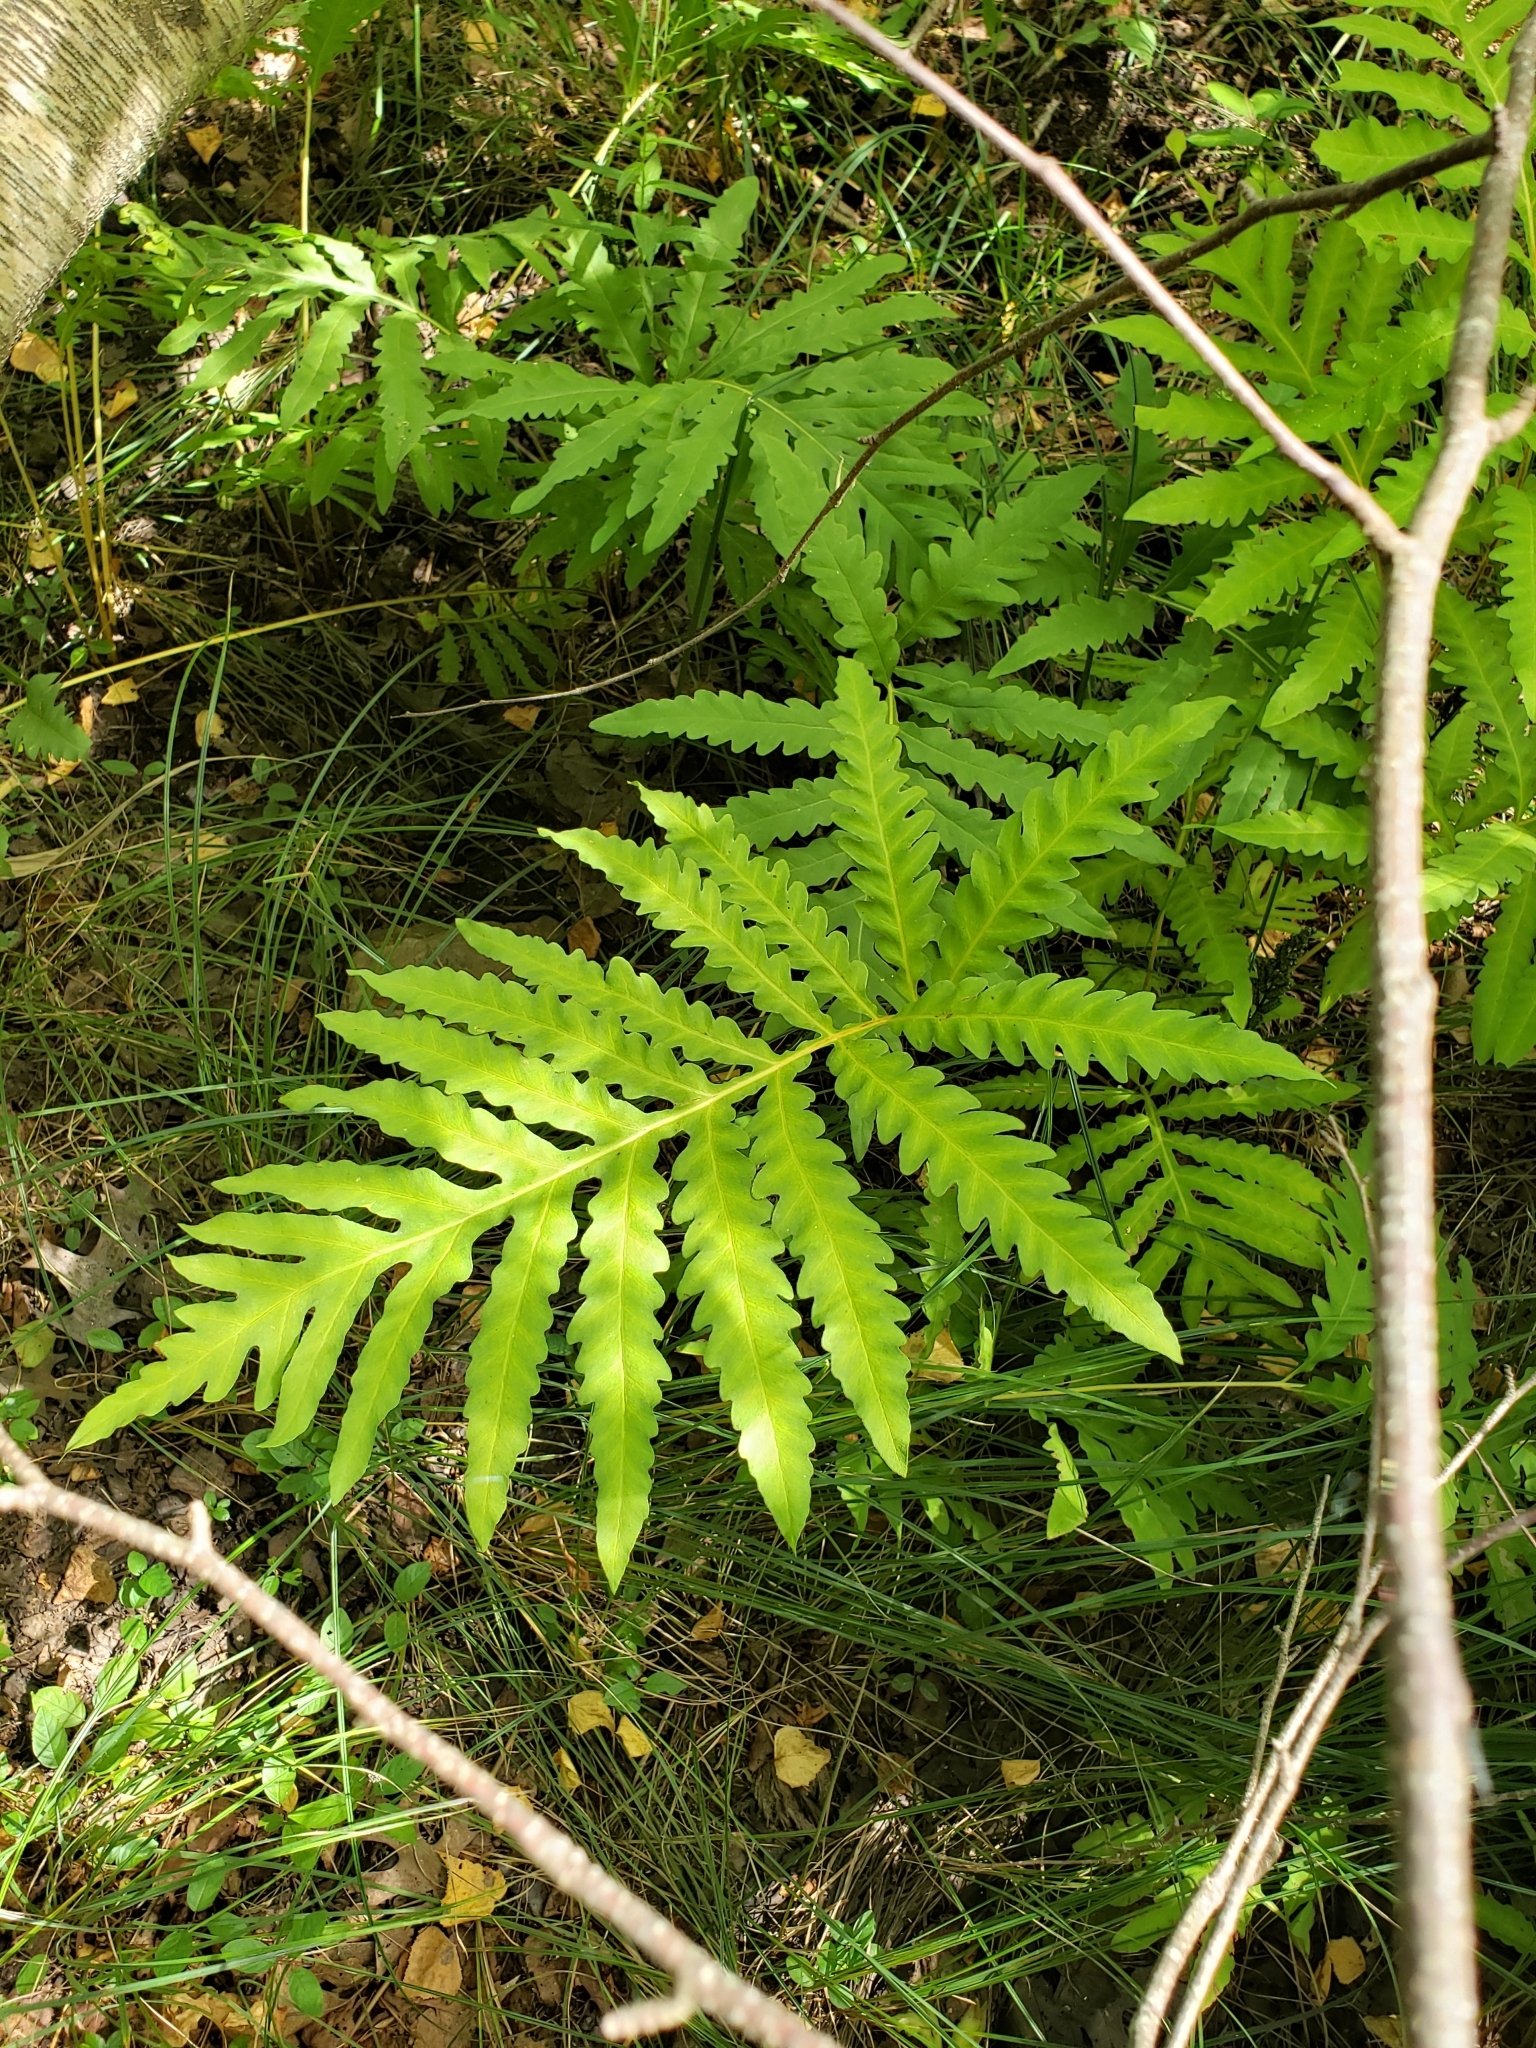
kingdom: Plantae
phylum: Tracheophyta
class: Polypodiopsida
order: Polypodiales
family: Onocleaceae
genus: Onoclea
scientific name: Onoclea sensibilis
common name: Sensitive fern
